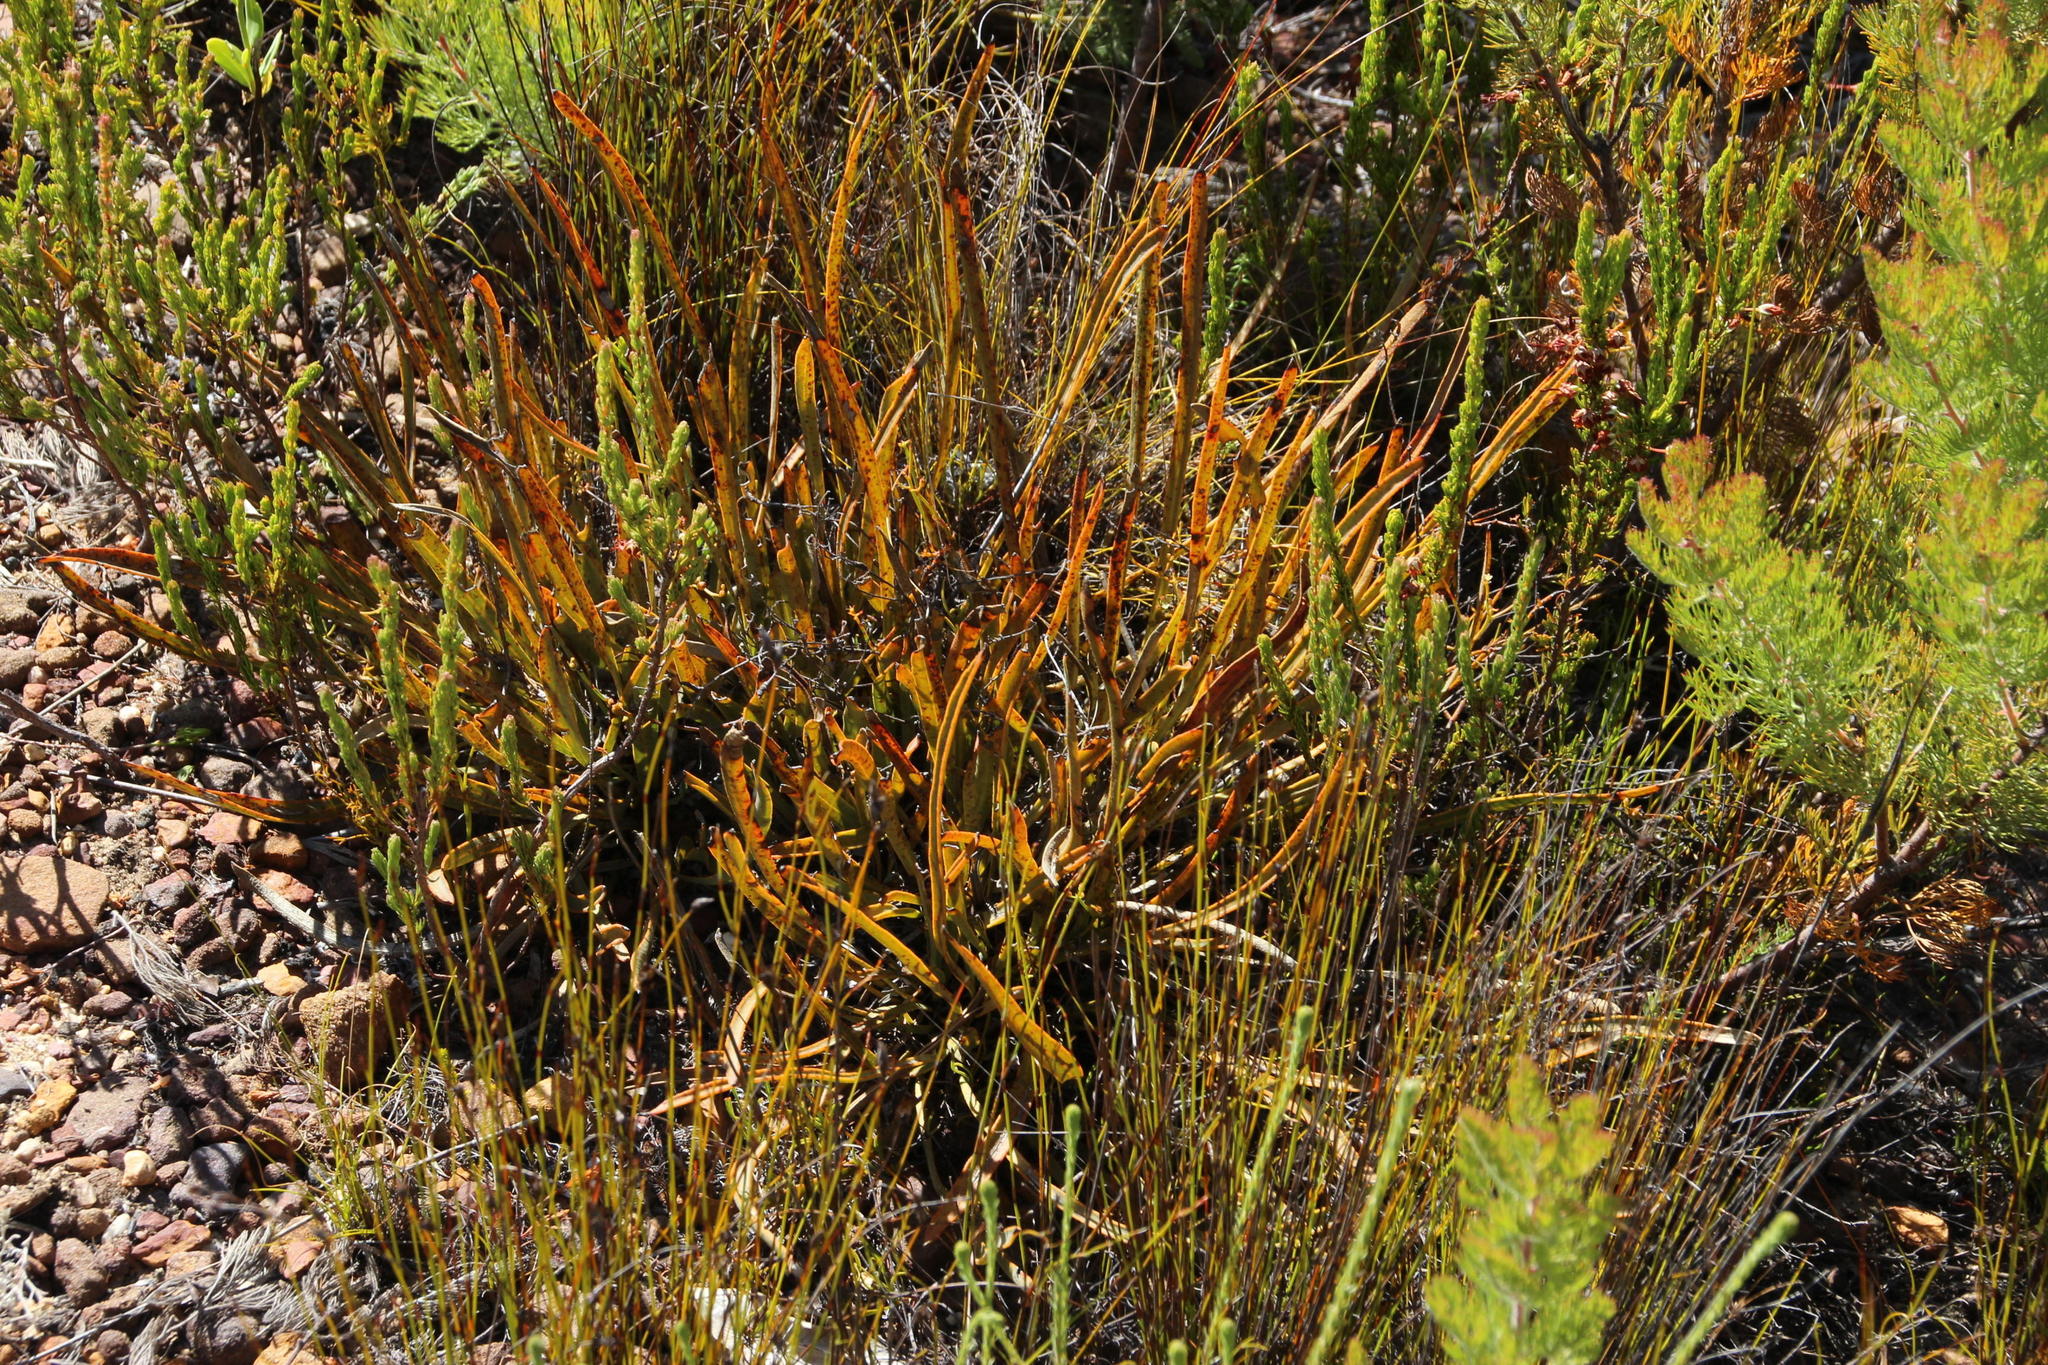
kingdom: Plantae
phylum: Tracheophyta
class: Magnoliopsida
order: Proteales
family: Proteaceae
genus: Protea
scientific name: Protea piscina
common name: Visgat sugarbush
